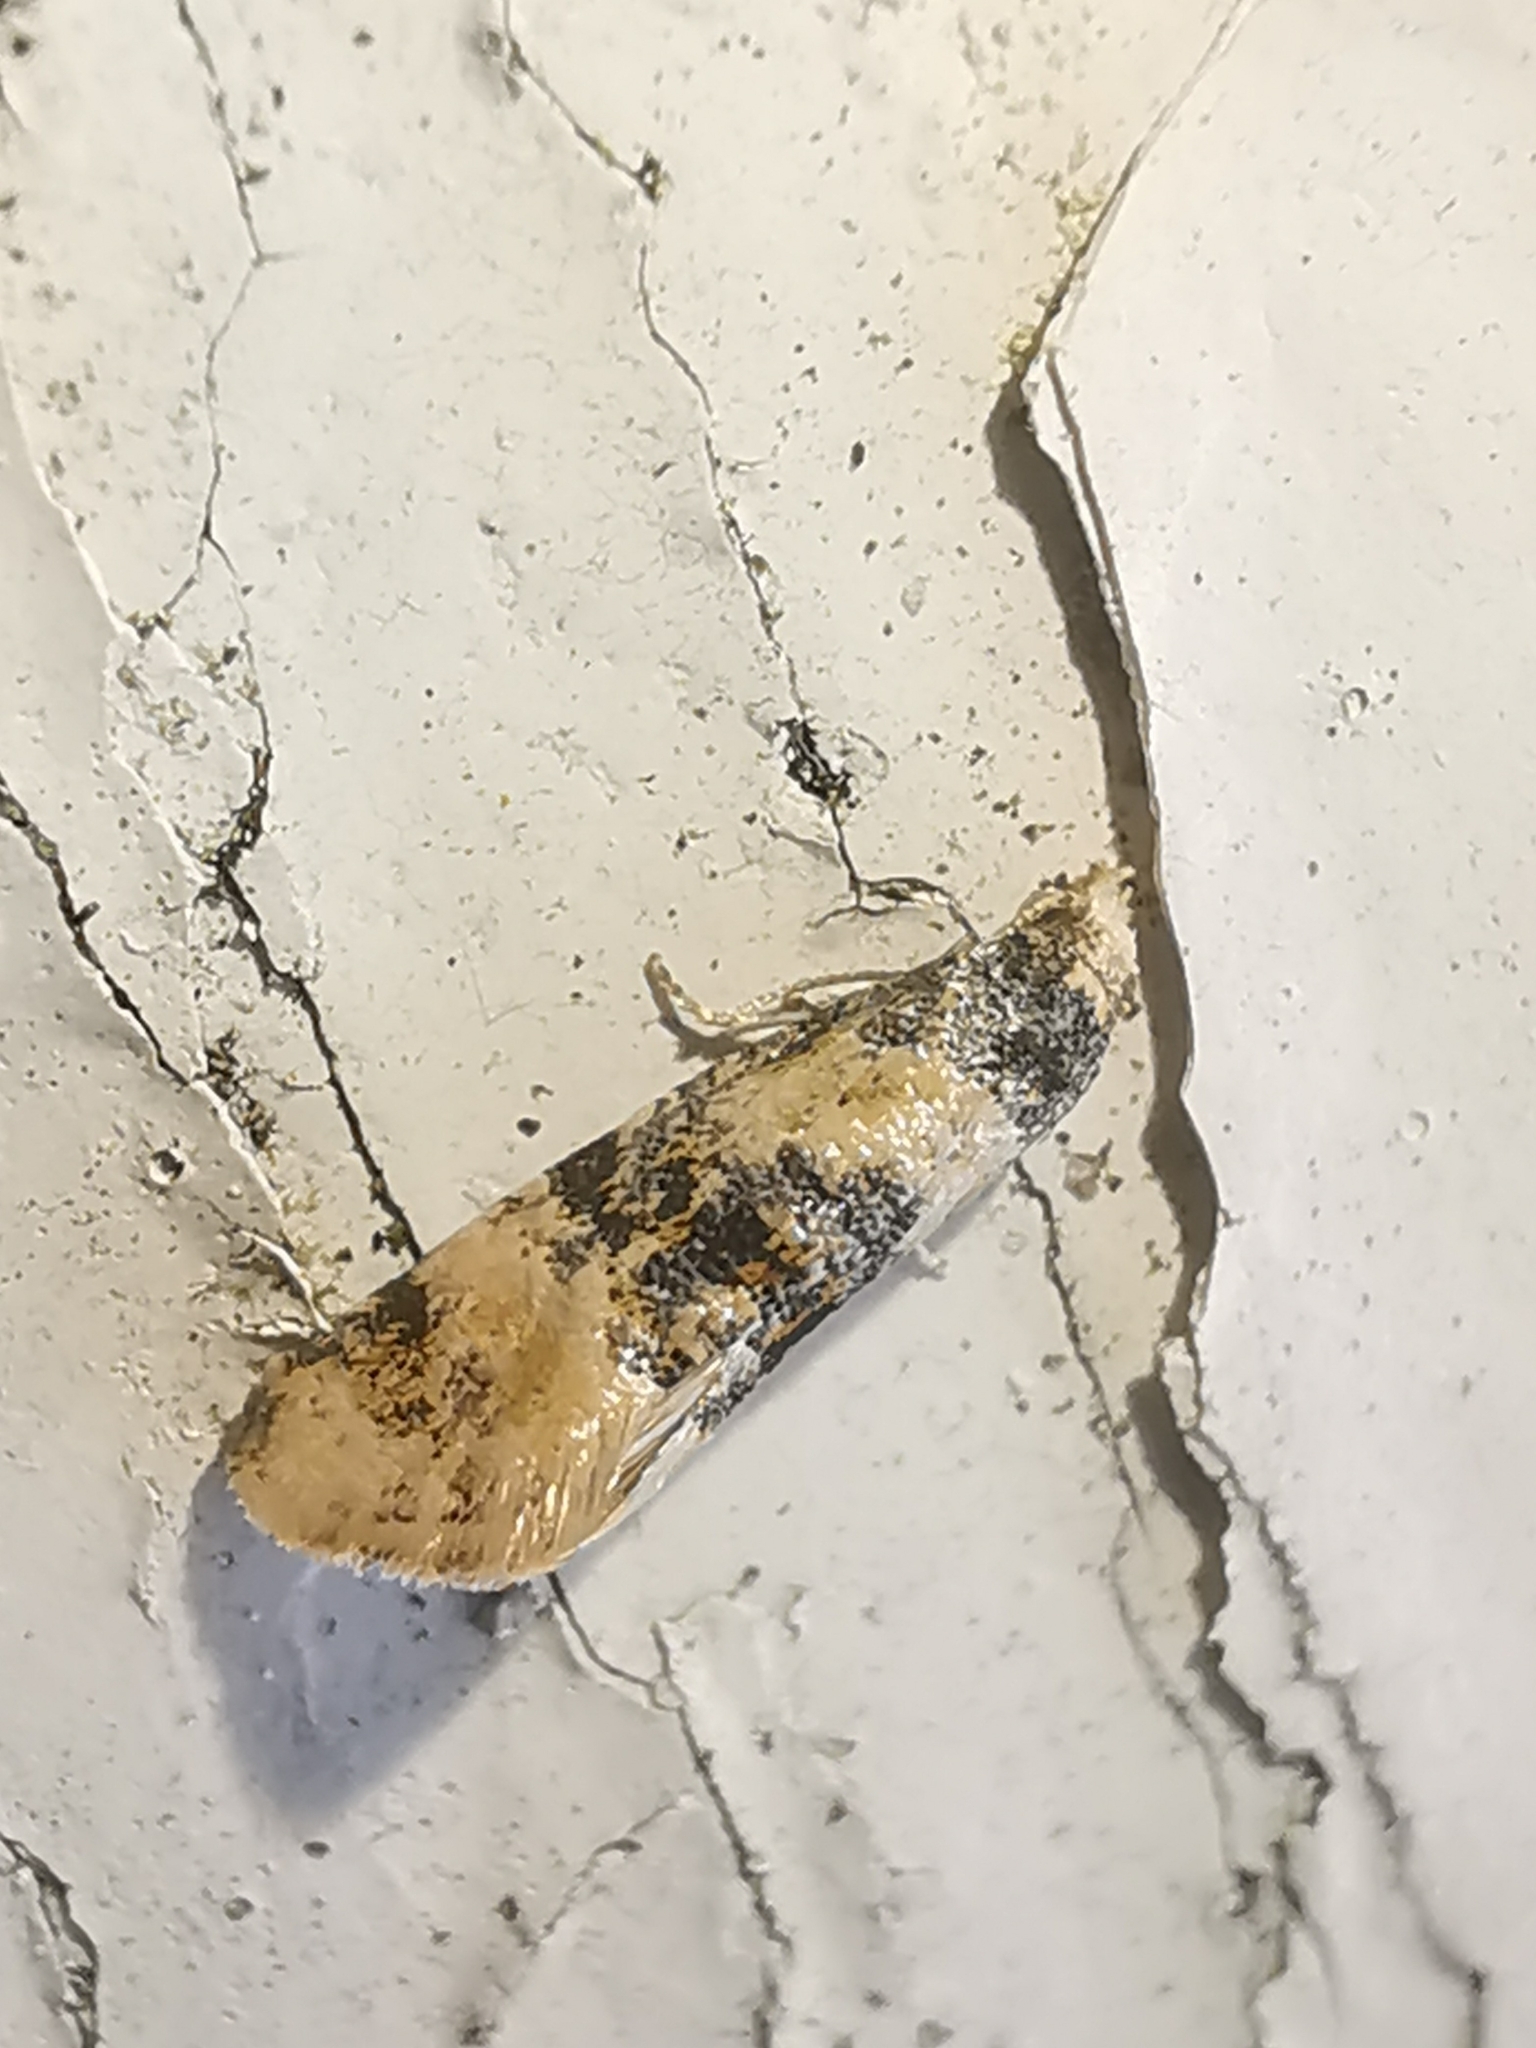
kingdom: Animalia
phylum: Arthropoda
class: Insecta
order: Lepidoptera
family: Tortricidae
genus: Thyraylia
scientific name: Thyraylia nana
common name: Birch conch
